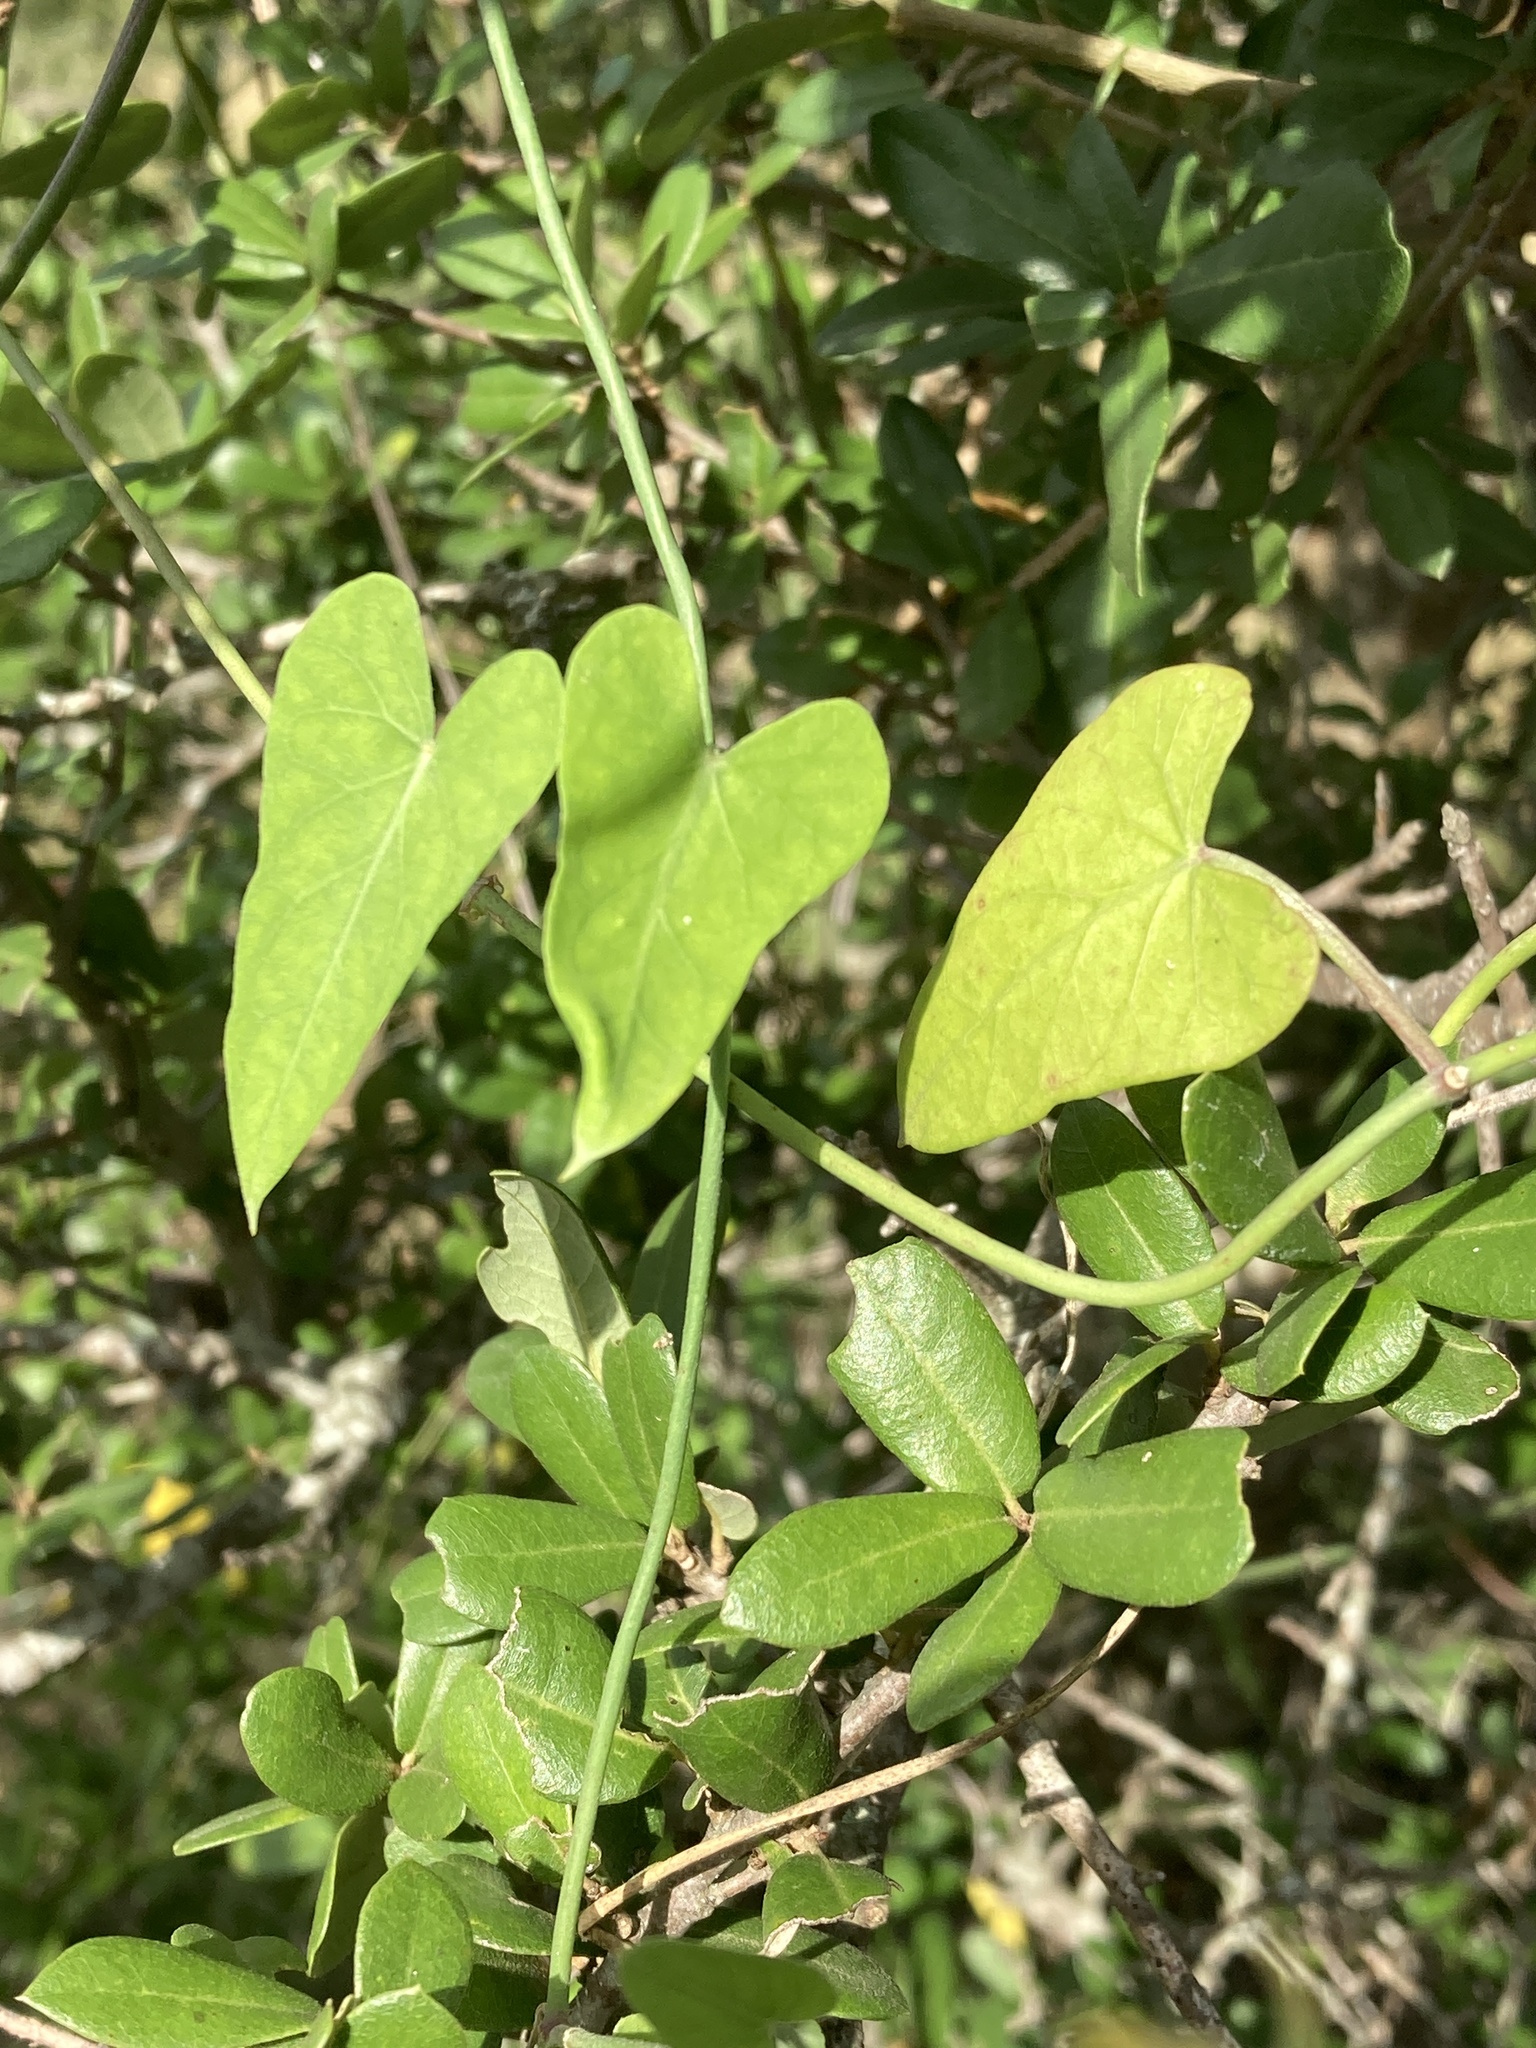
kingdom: Plantae
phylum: Tracheophyta
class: Magnoliopsida
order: Gentianales
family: Apocynaceae
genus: Funastrum
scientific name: Funastrum cynanchoides
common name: Climbing-milkweed
